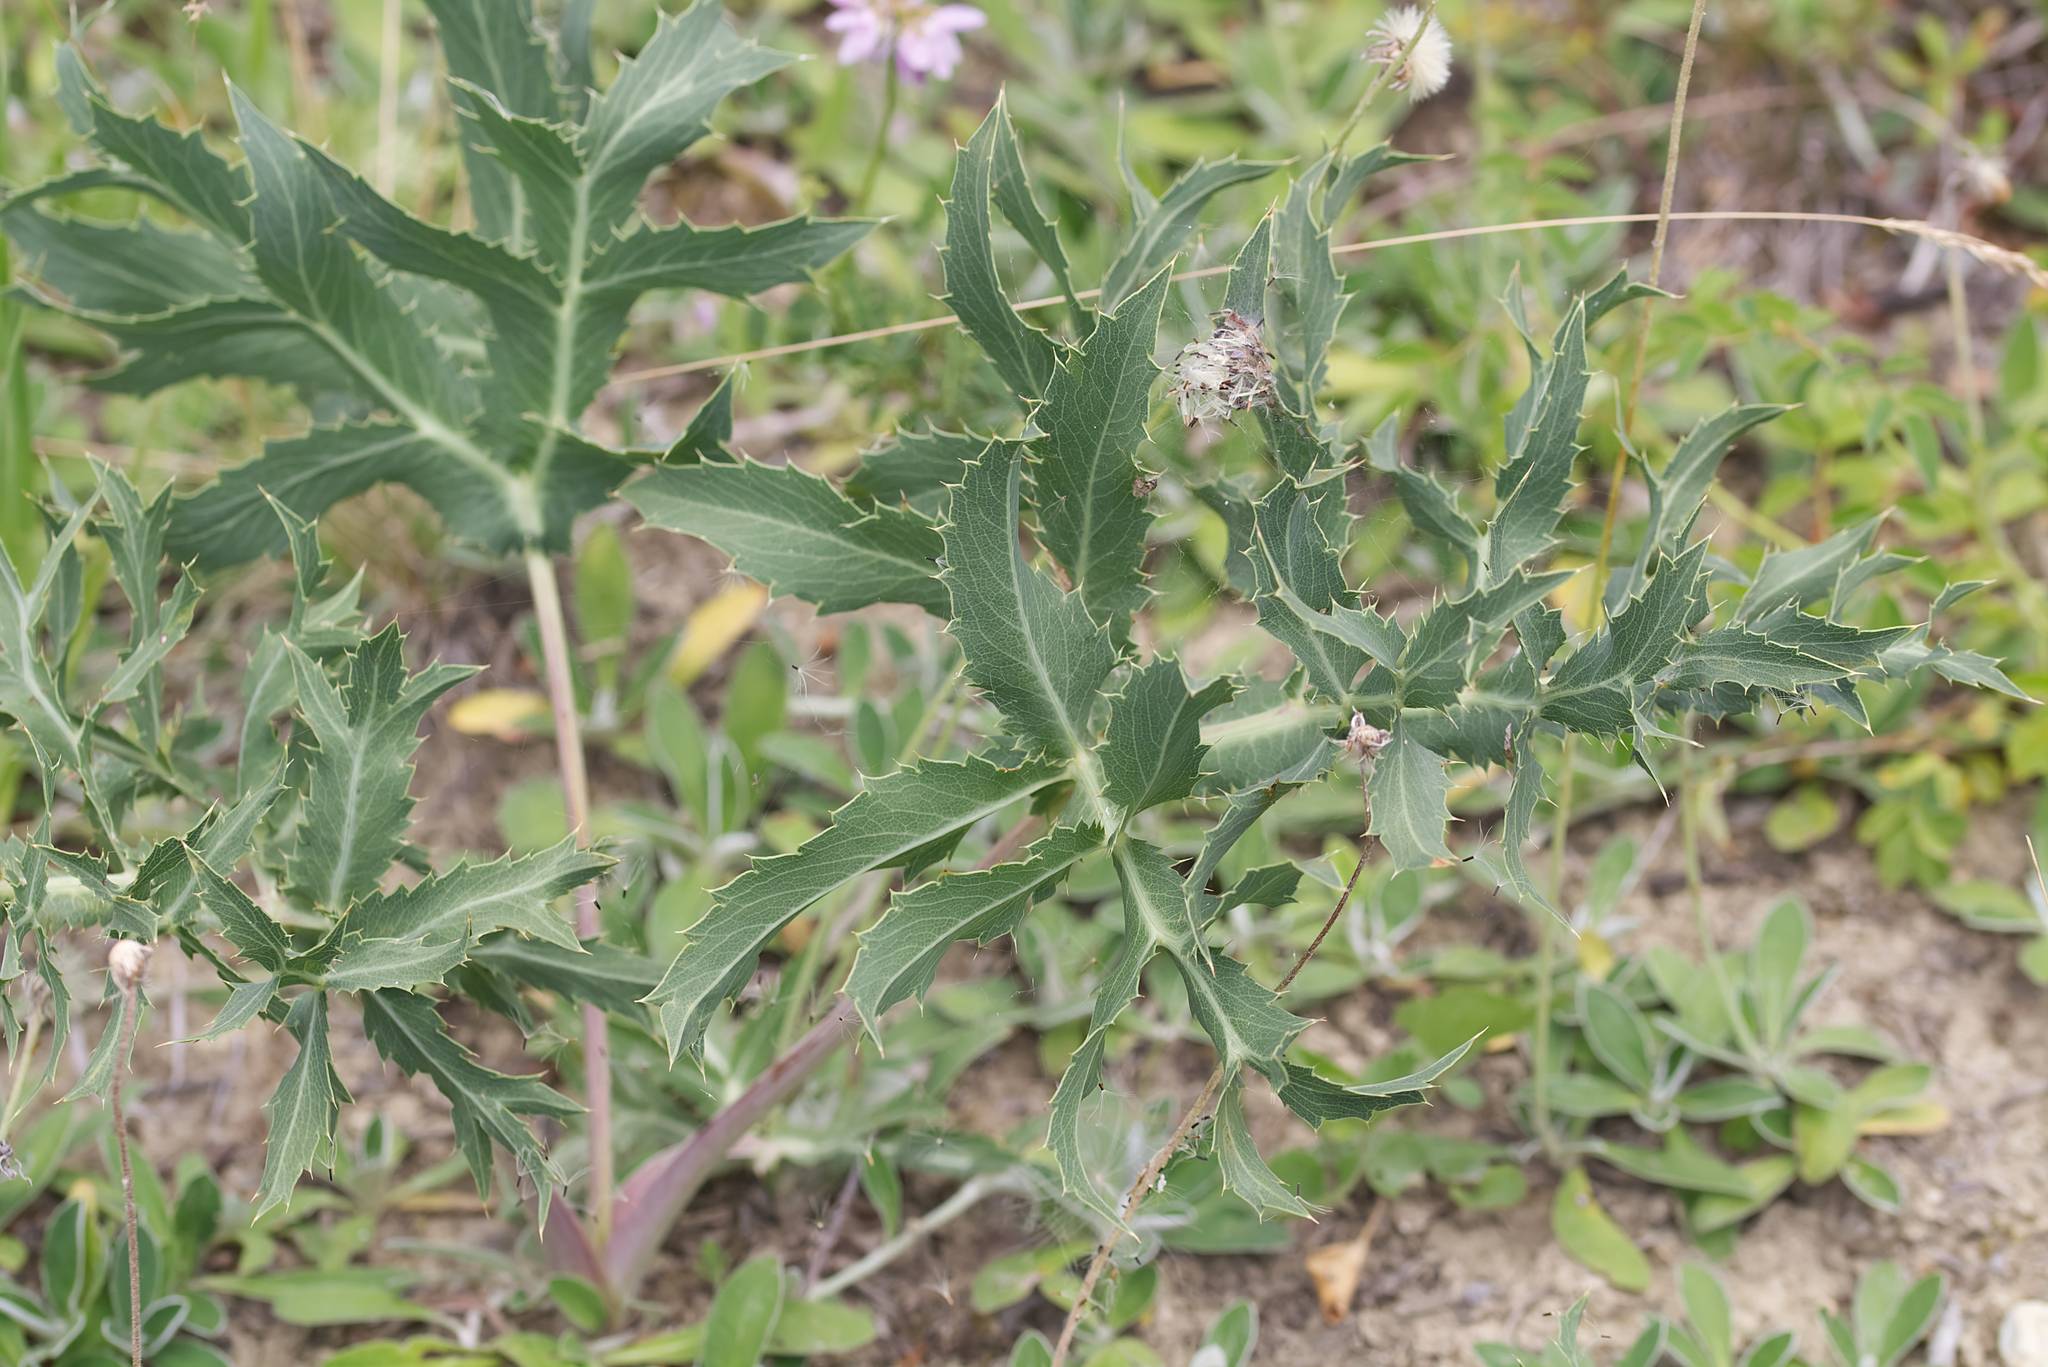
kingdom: Plantae
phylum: Tracheophyta
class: Magnoliopsida
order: Apiales
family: Apiaceae
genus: Eryngium
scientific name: Eryngium campestre
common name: Field eryngo
